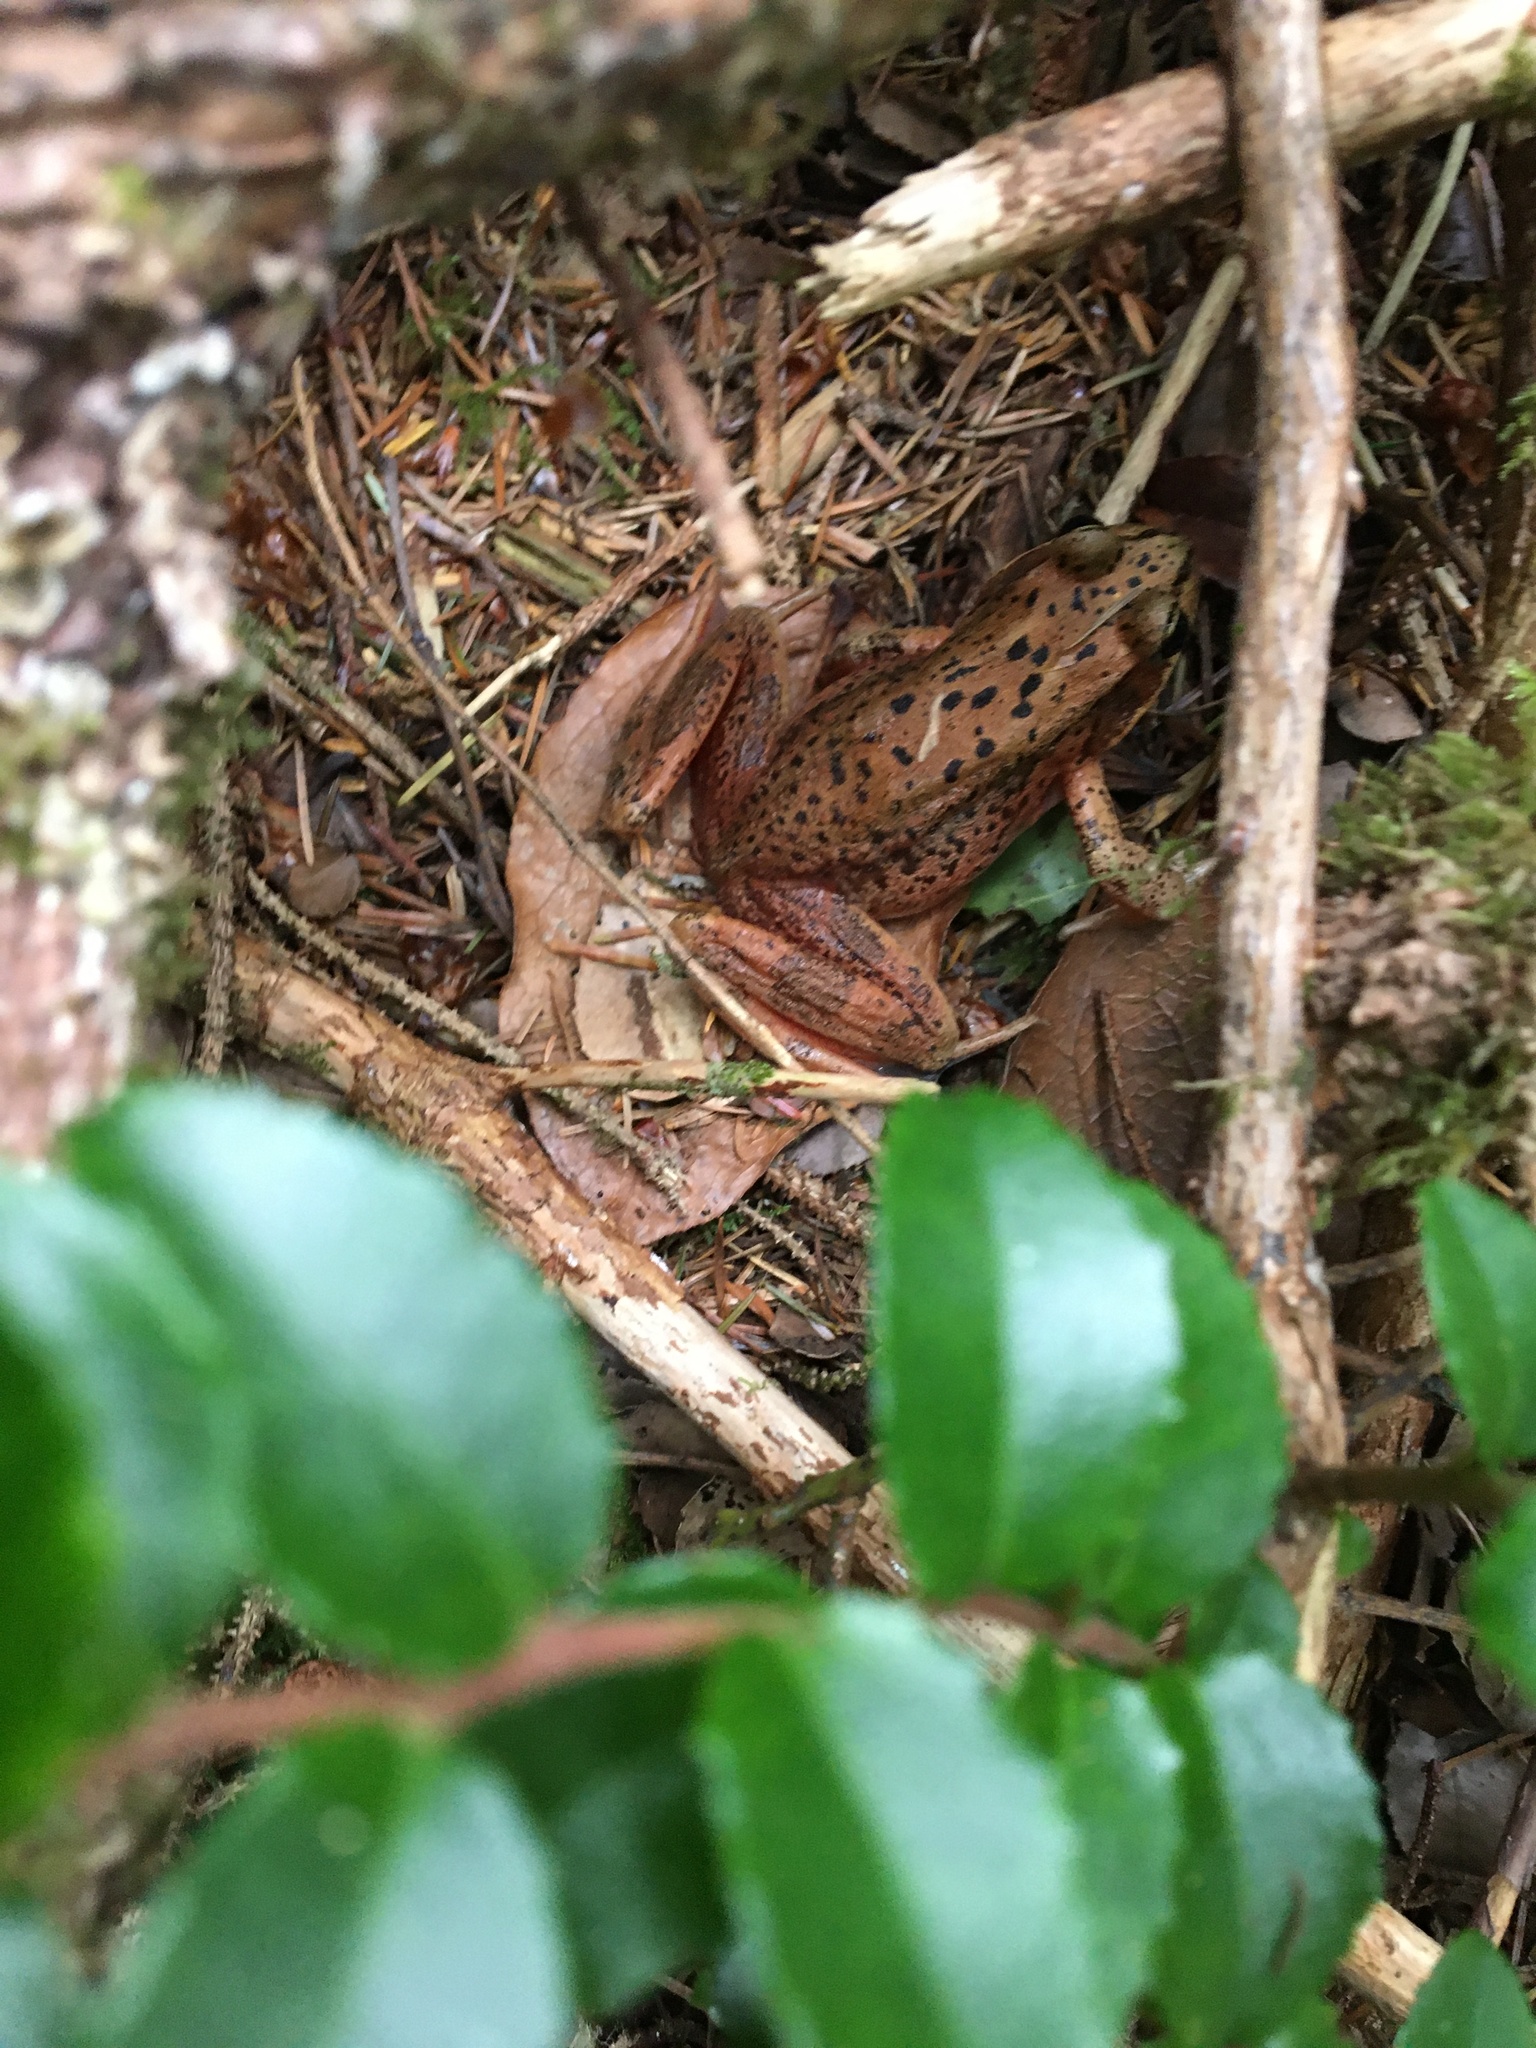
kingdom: Animalia
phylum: Chordata
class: Amphibia
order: Anura
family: Ranidae
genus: Rana
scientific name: Rana aurora
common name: Red-legged frog
